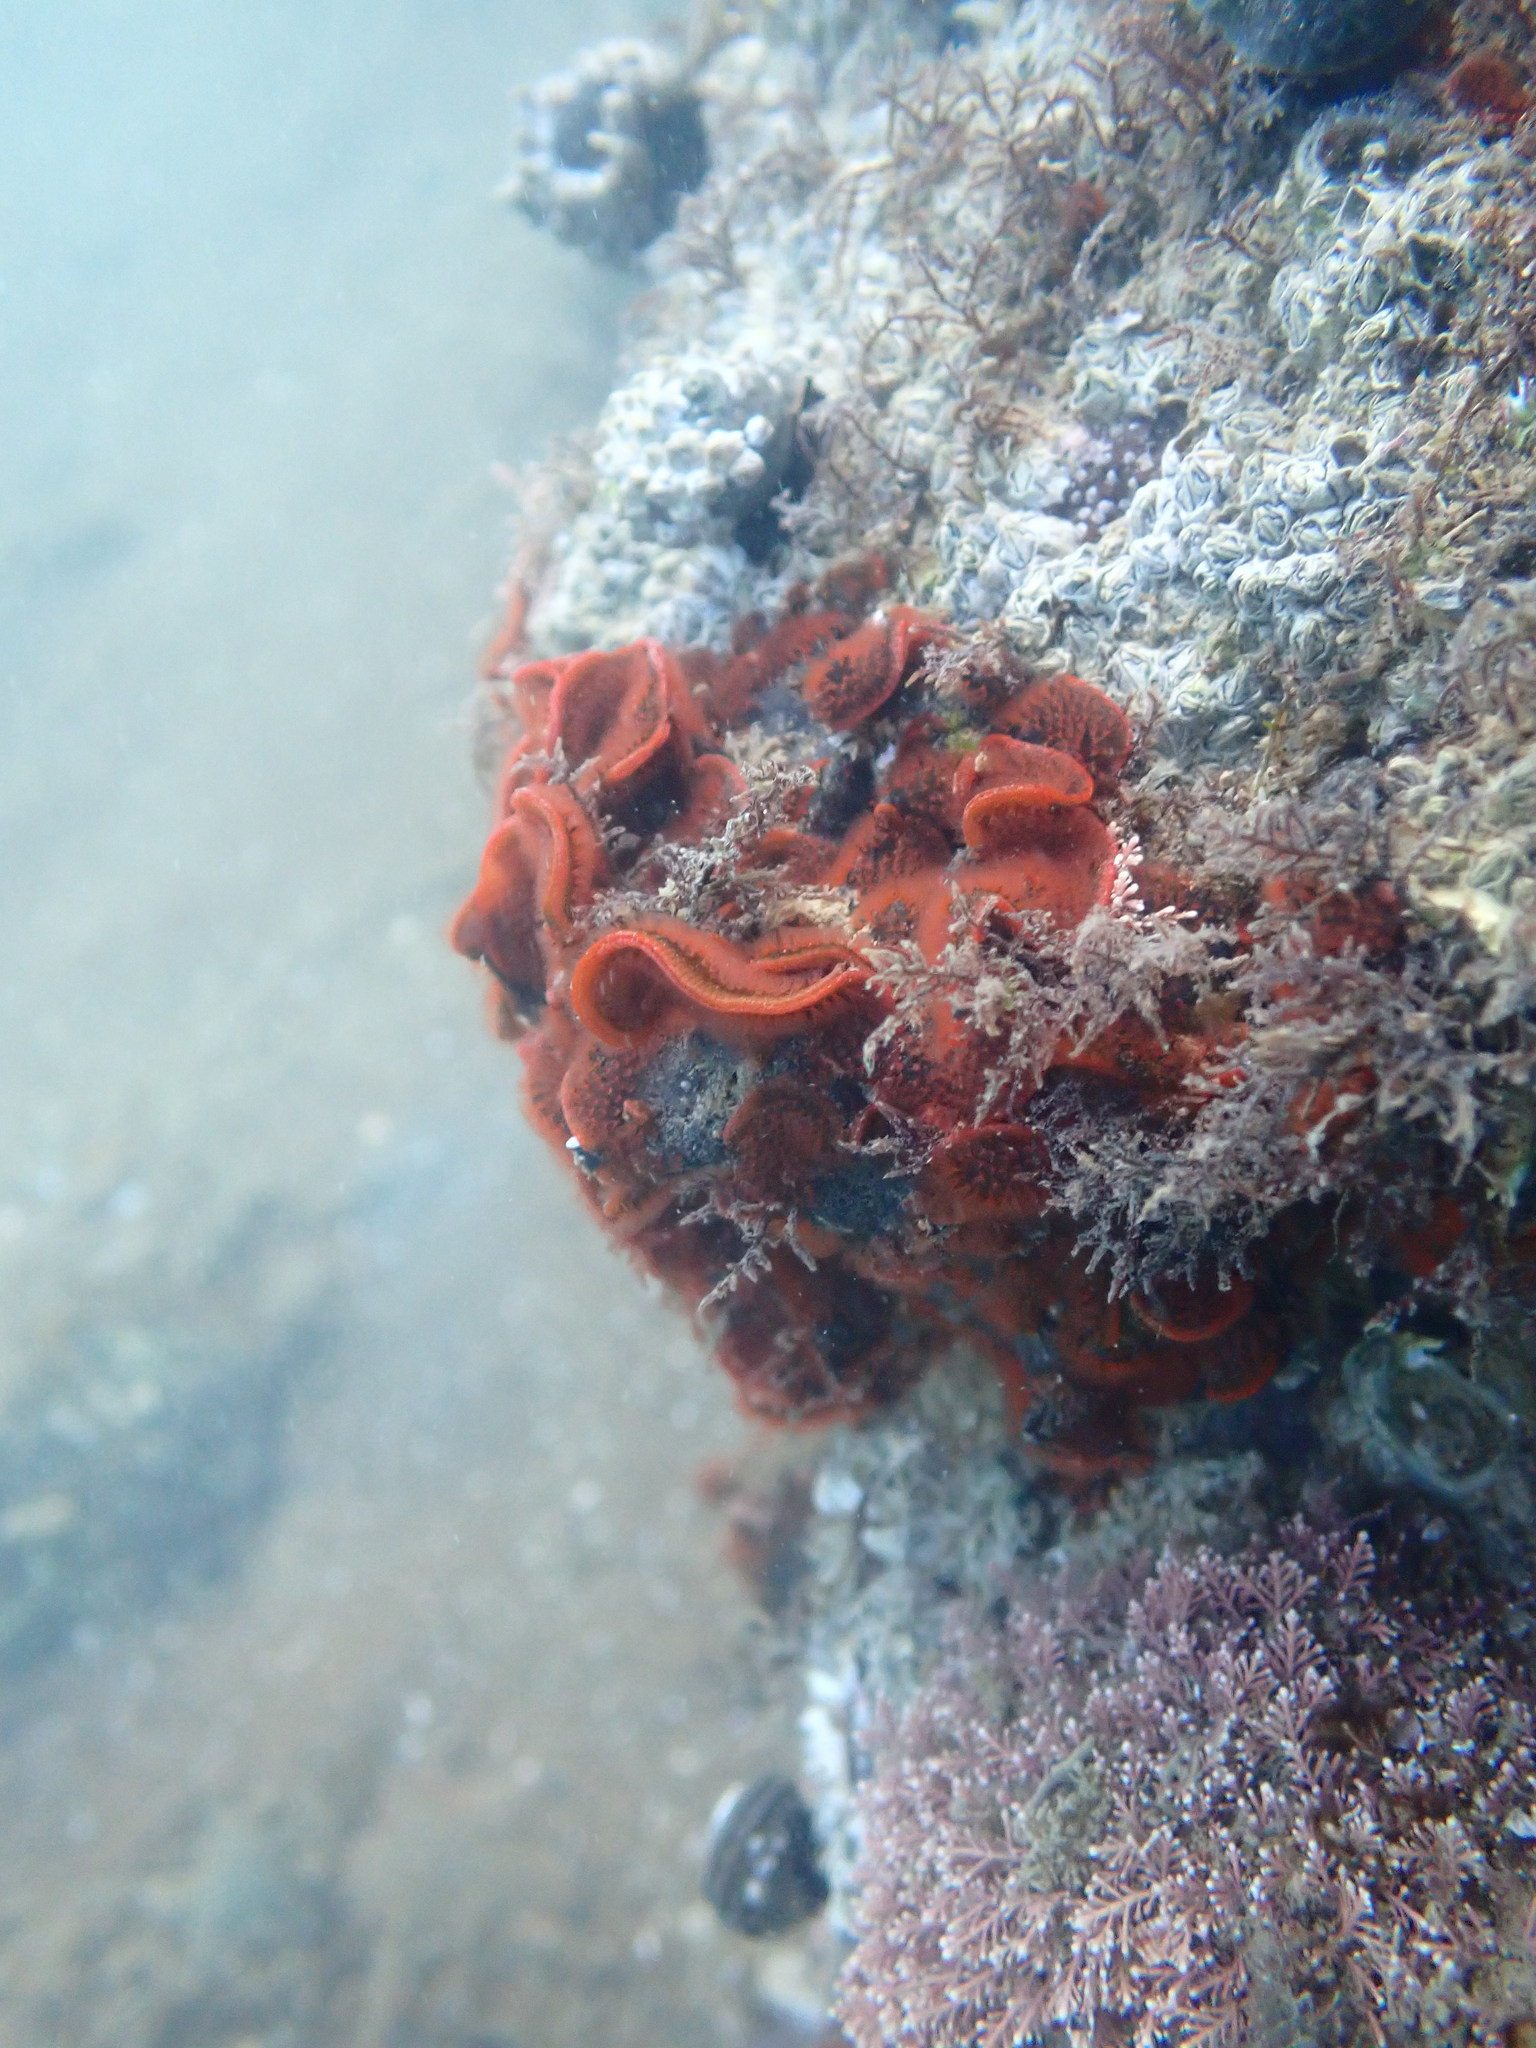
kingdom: Animalia
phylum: Bryozoa
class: Gymnolaemata
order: Cheilostomatida
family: Watersiporidae
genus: Watersipora
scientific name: Watersipora subatra
